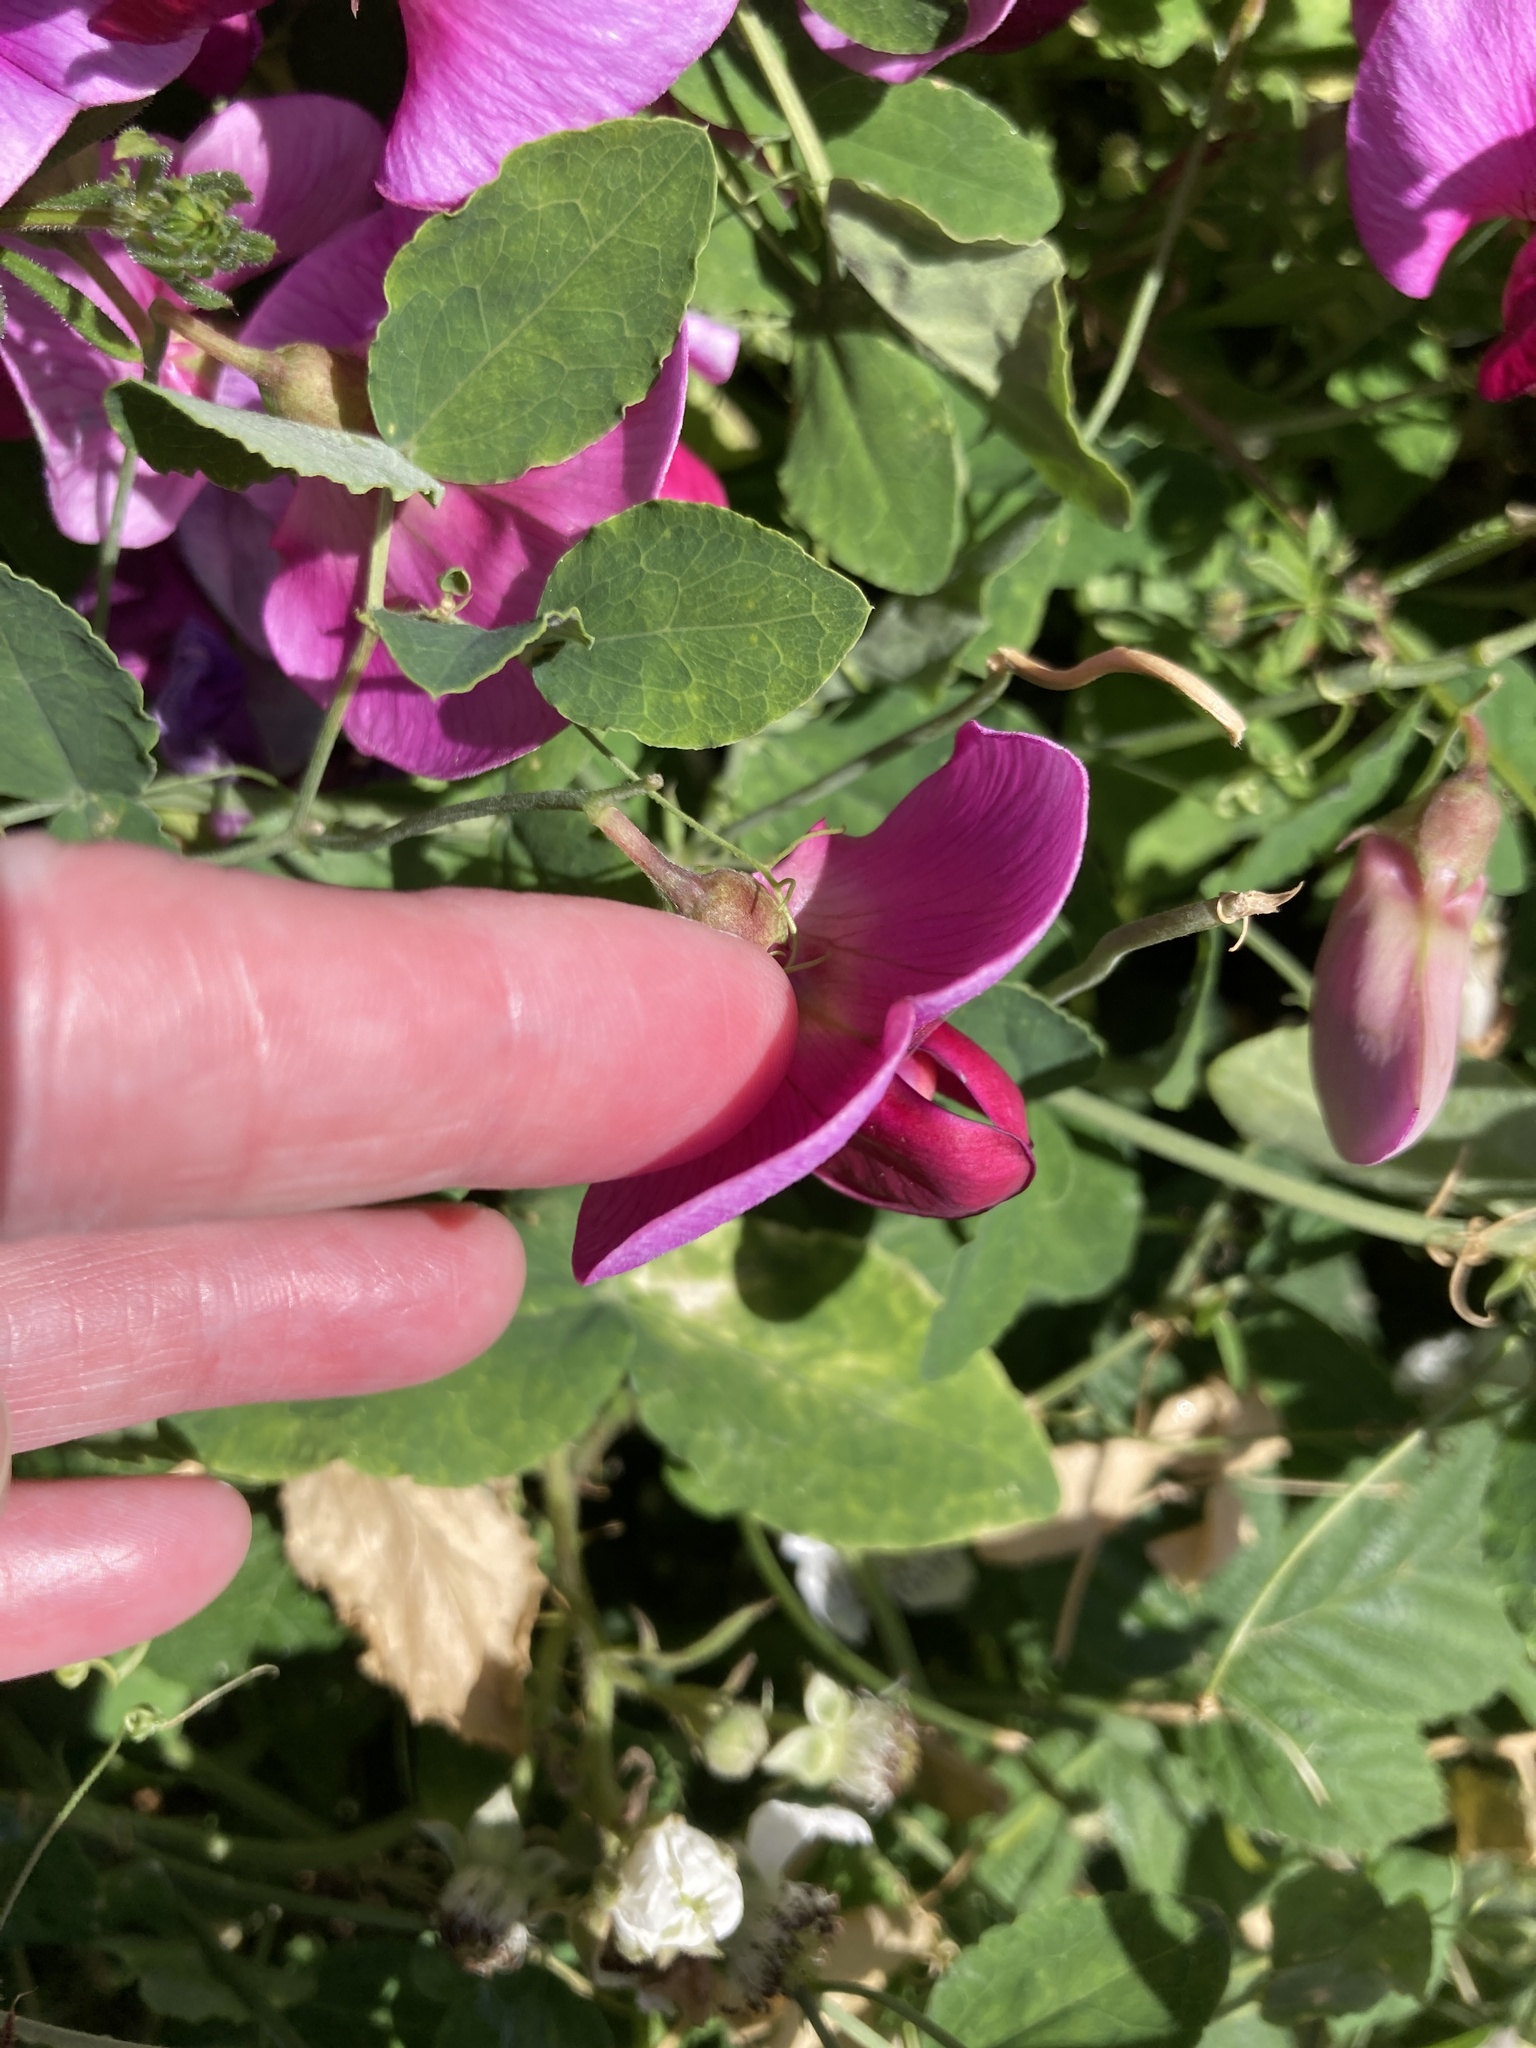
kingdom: Plantae
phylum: Tracheophyta
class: Magnoliopsida
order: Fabales
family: Fabaceae
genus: Lathyrus
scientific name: Lathyrus grandiflorus
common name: Two-flowered everlasting-pea
